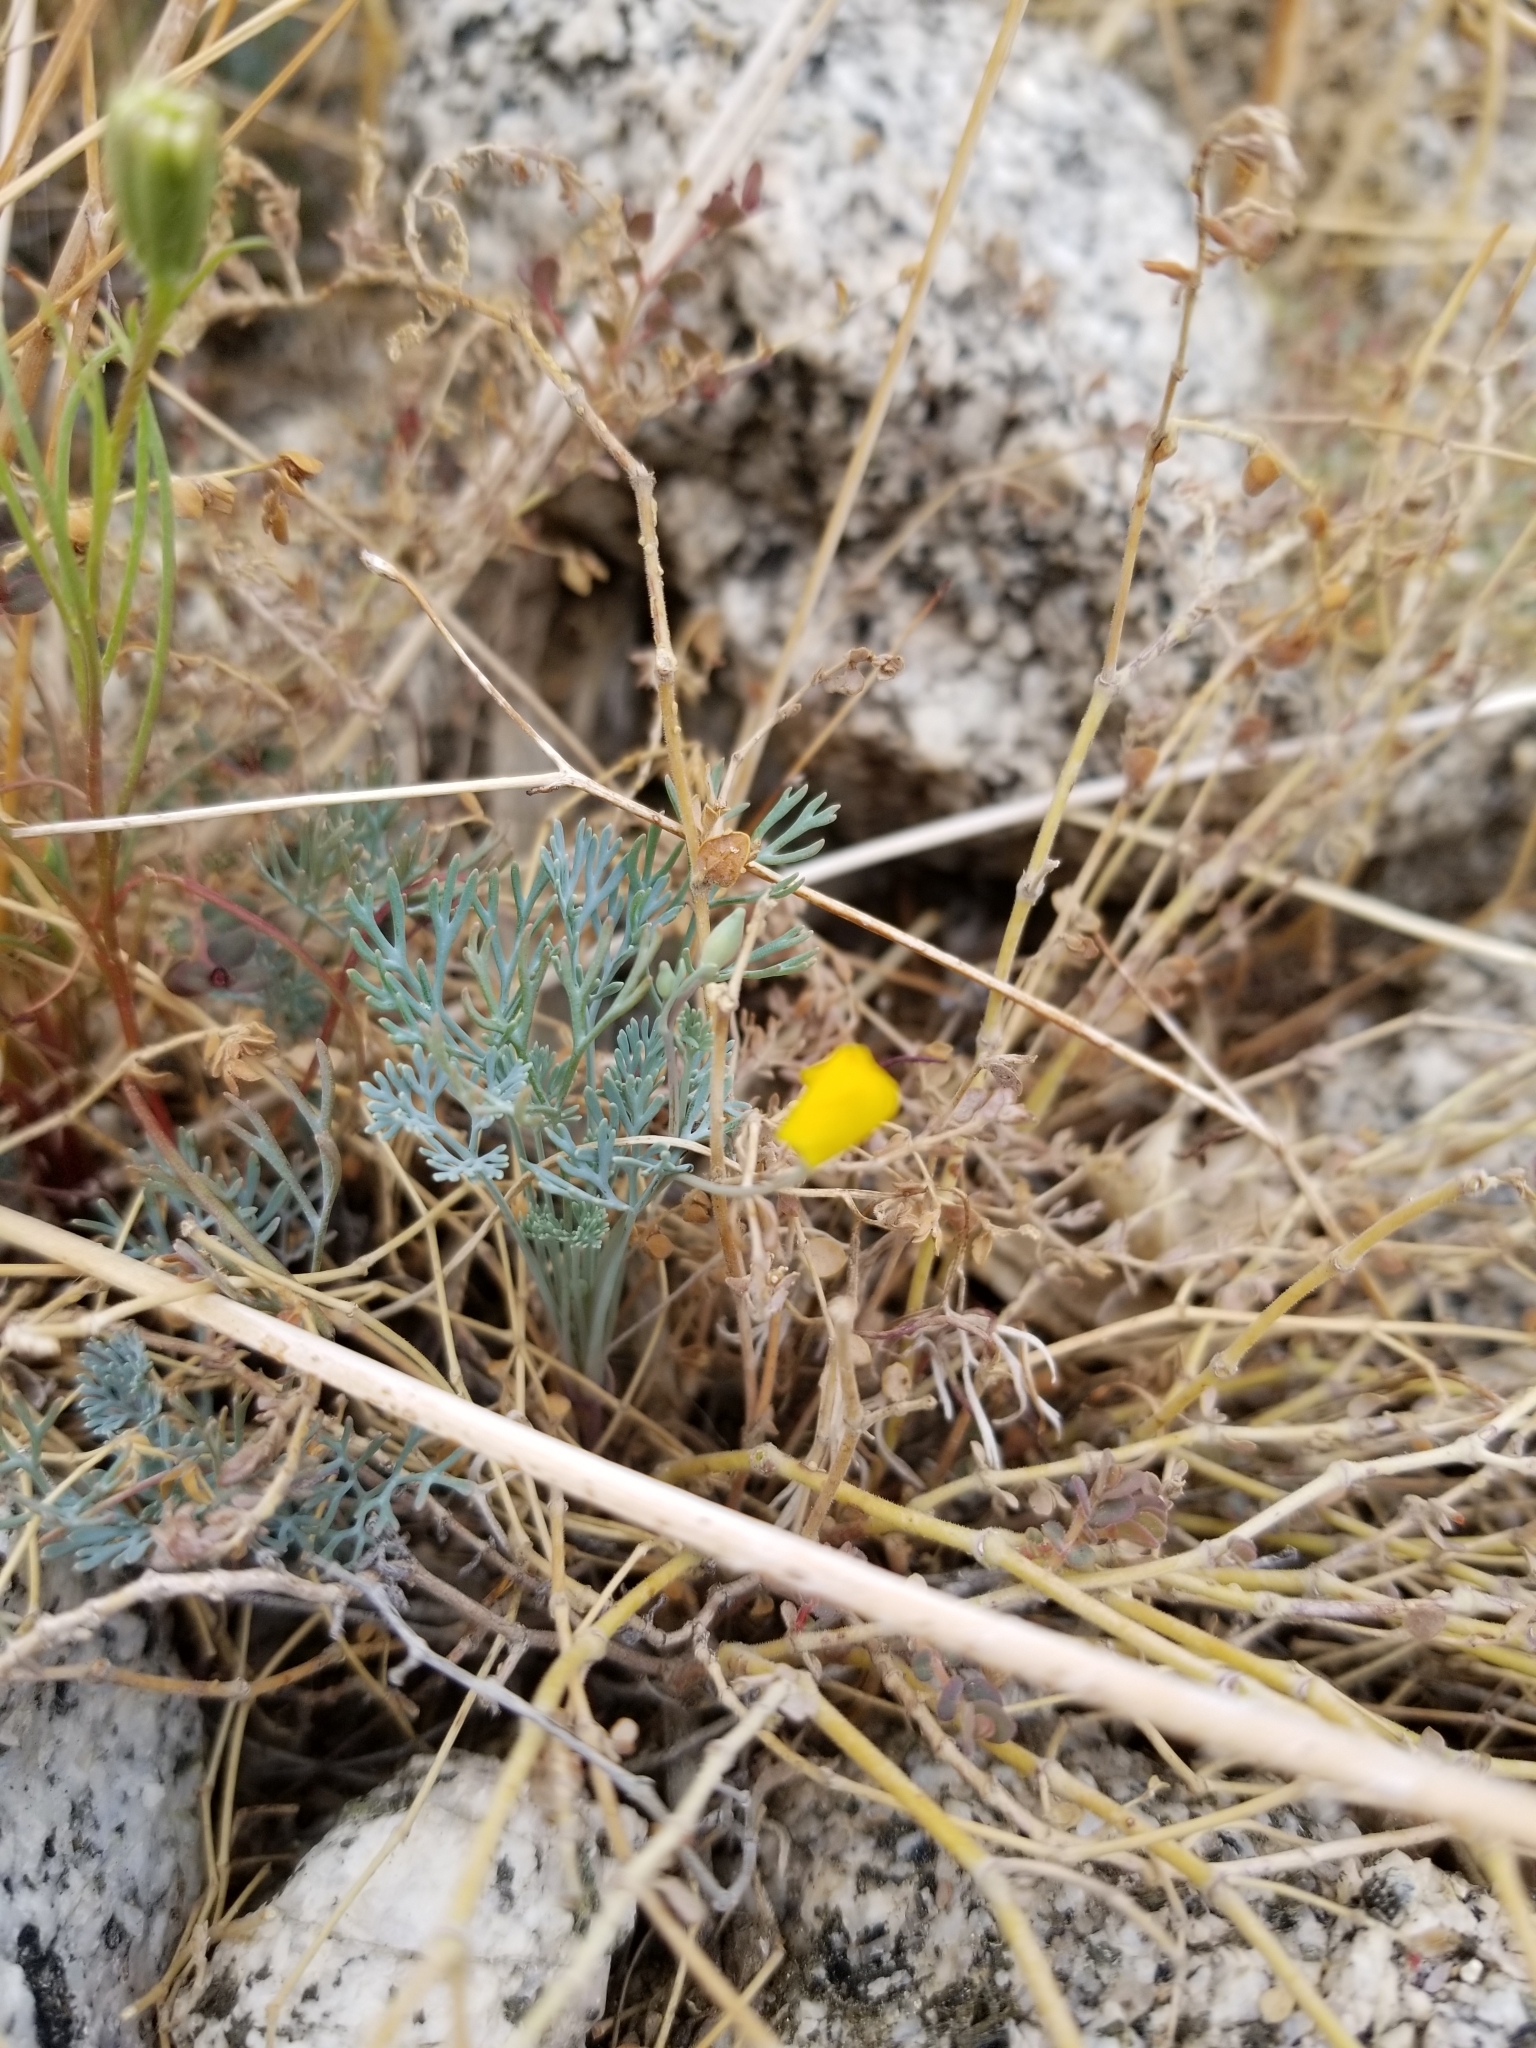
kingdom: Plantae
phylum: Tracheophyta
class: Magnoliopsida
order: Ranunculales
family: Papaveraceae
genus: Eschscholzia
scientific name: Eschscholzia minutiflora
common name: Small-flower california-poppy
